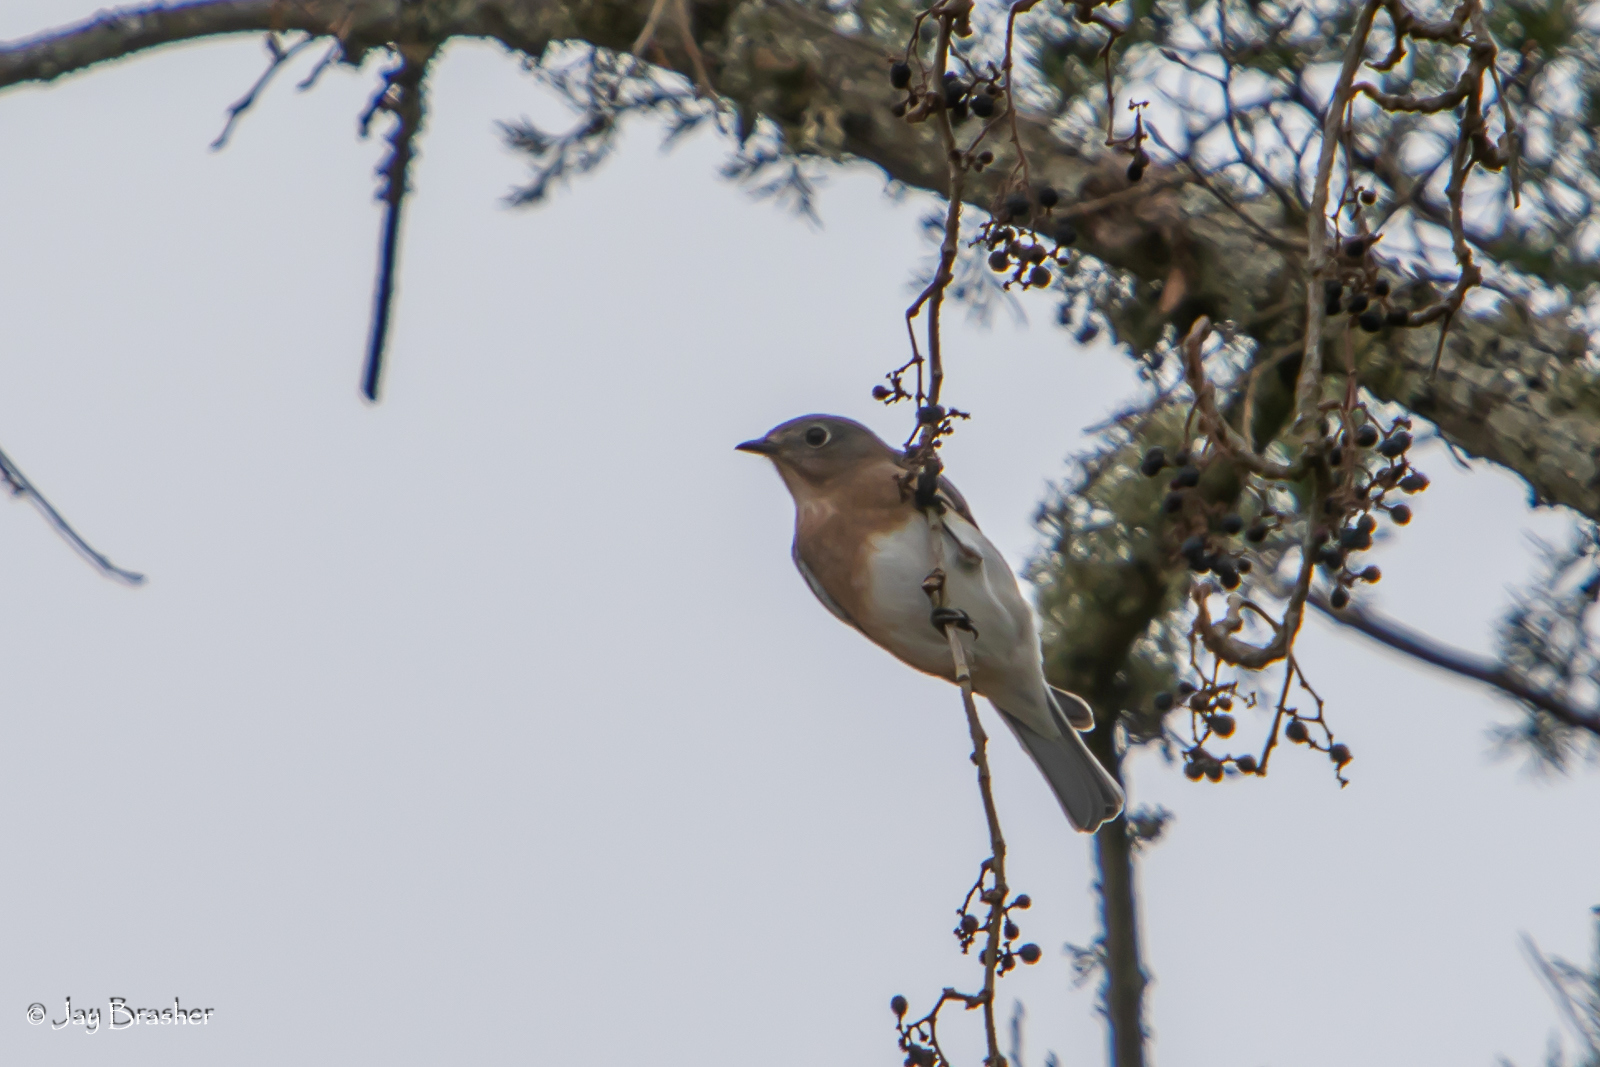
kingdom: Animalia
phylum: Chordata
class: Aves
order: Passeriformes
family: Turdidae
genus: Sialia
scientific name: Sialia sialis
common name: Eastern bluebird
